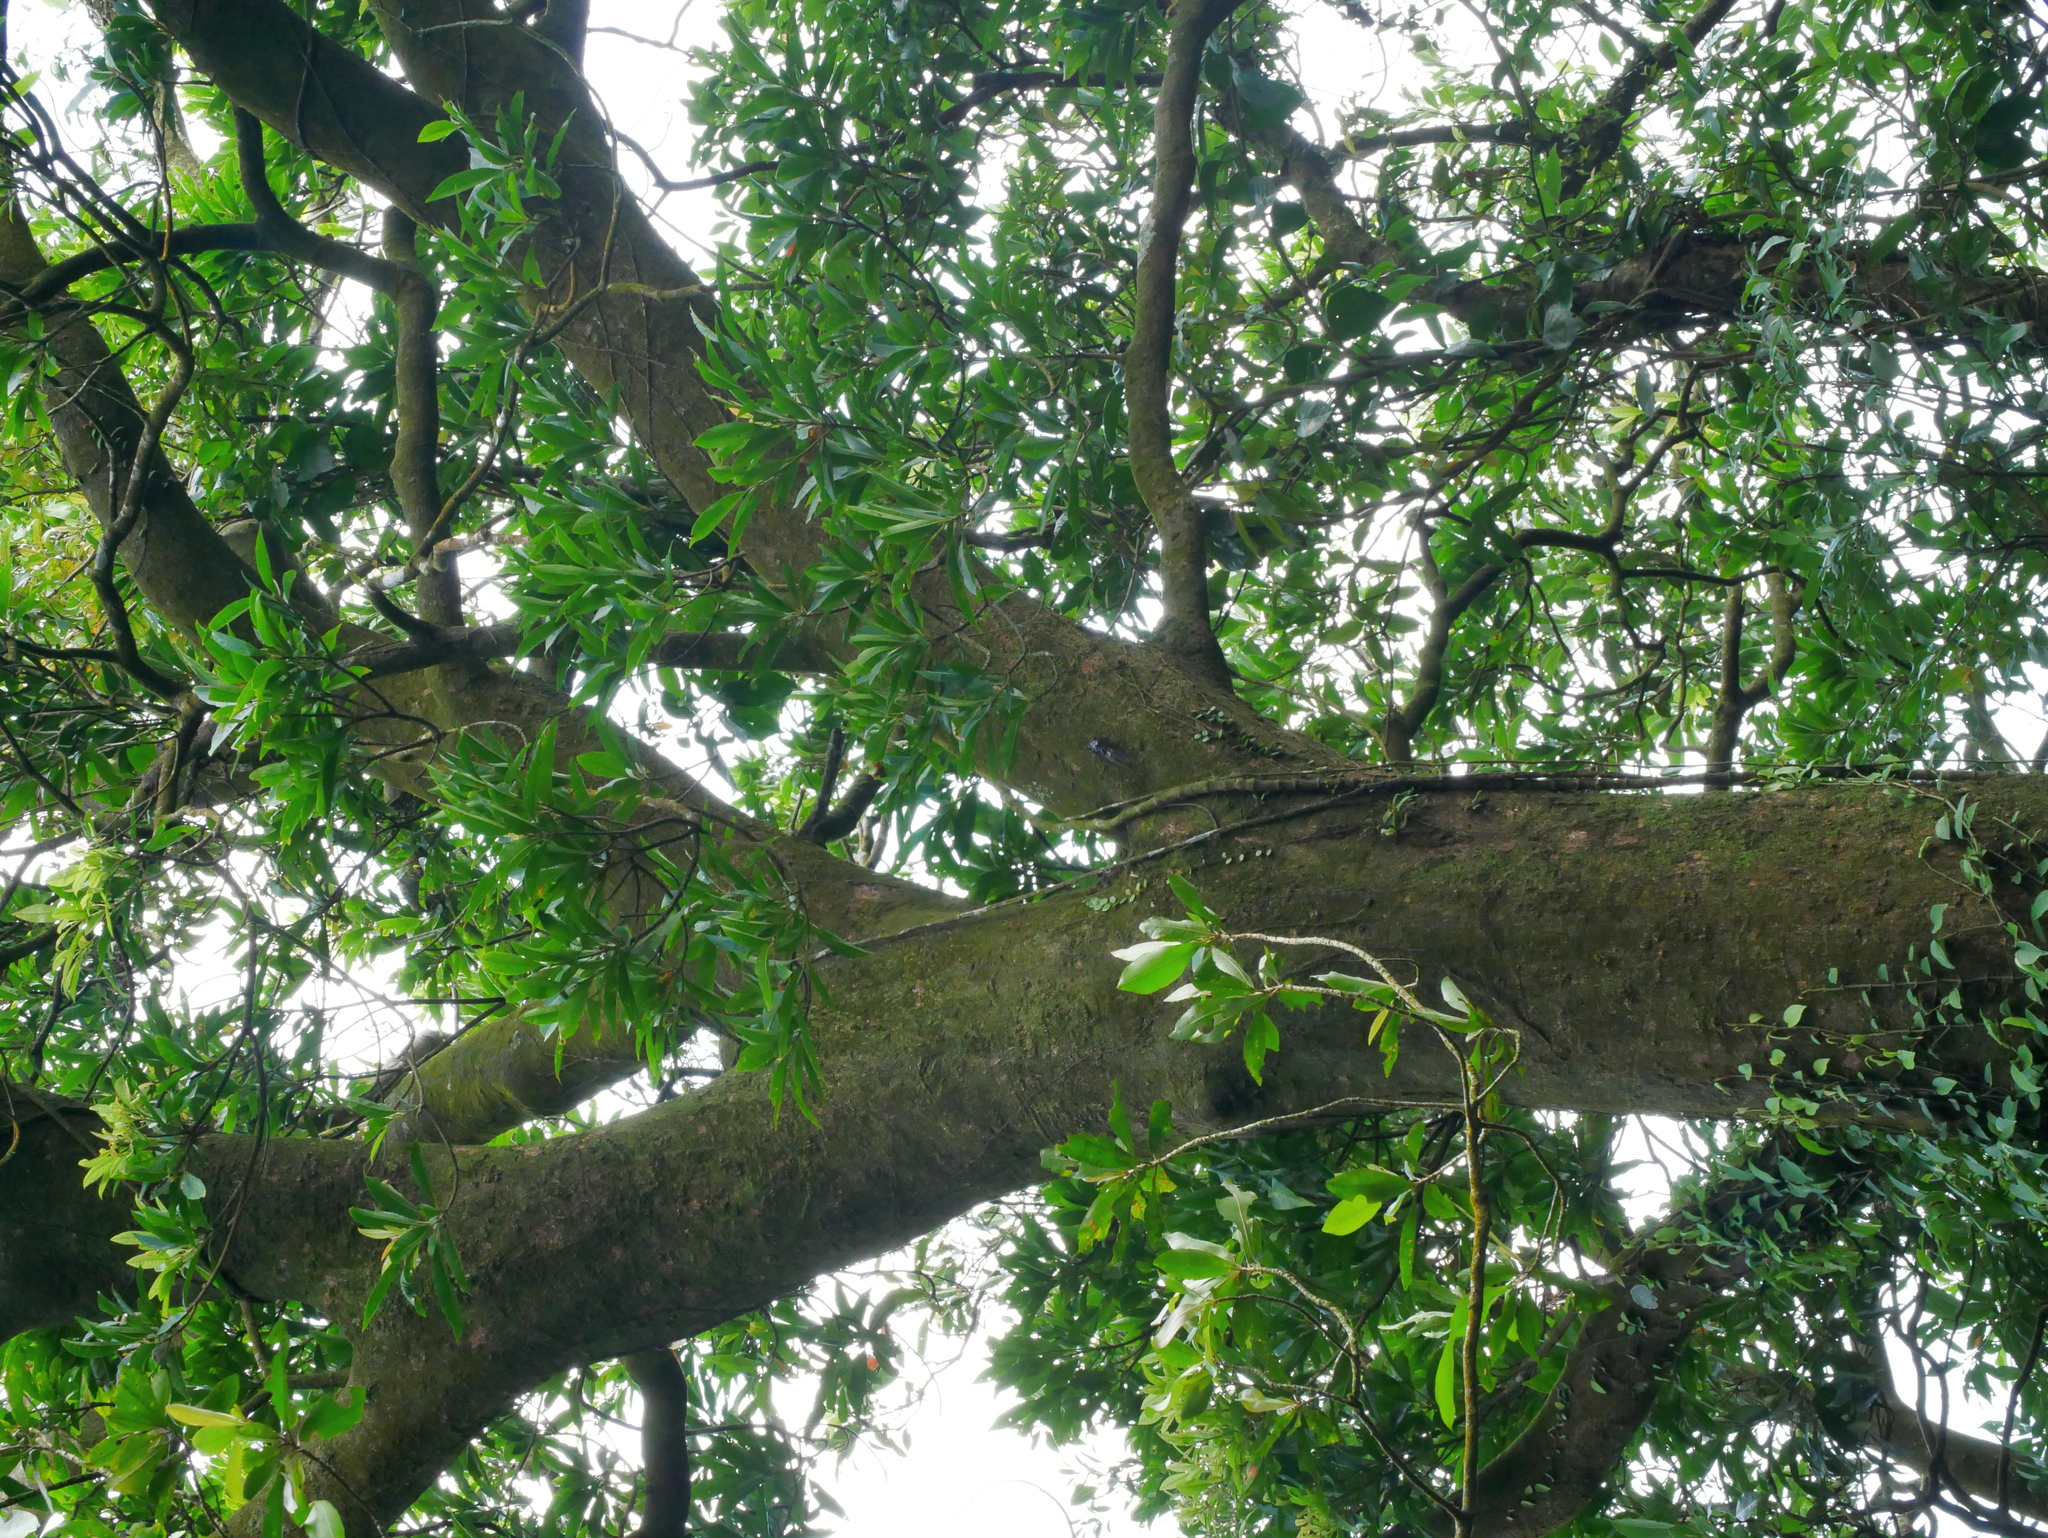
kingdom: Plantae
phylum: Tracheophyta
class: Magnoliopsida
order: Oxalidales
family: Elaeocarpaceae
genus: Elaeocarpus
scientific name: Elaeocarpus decipiens
